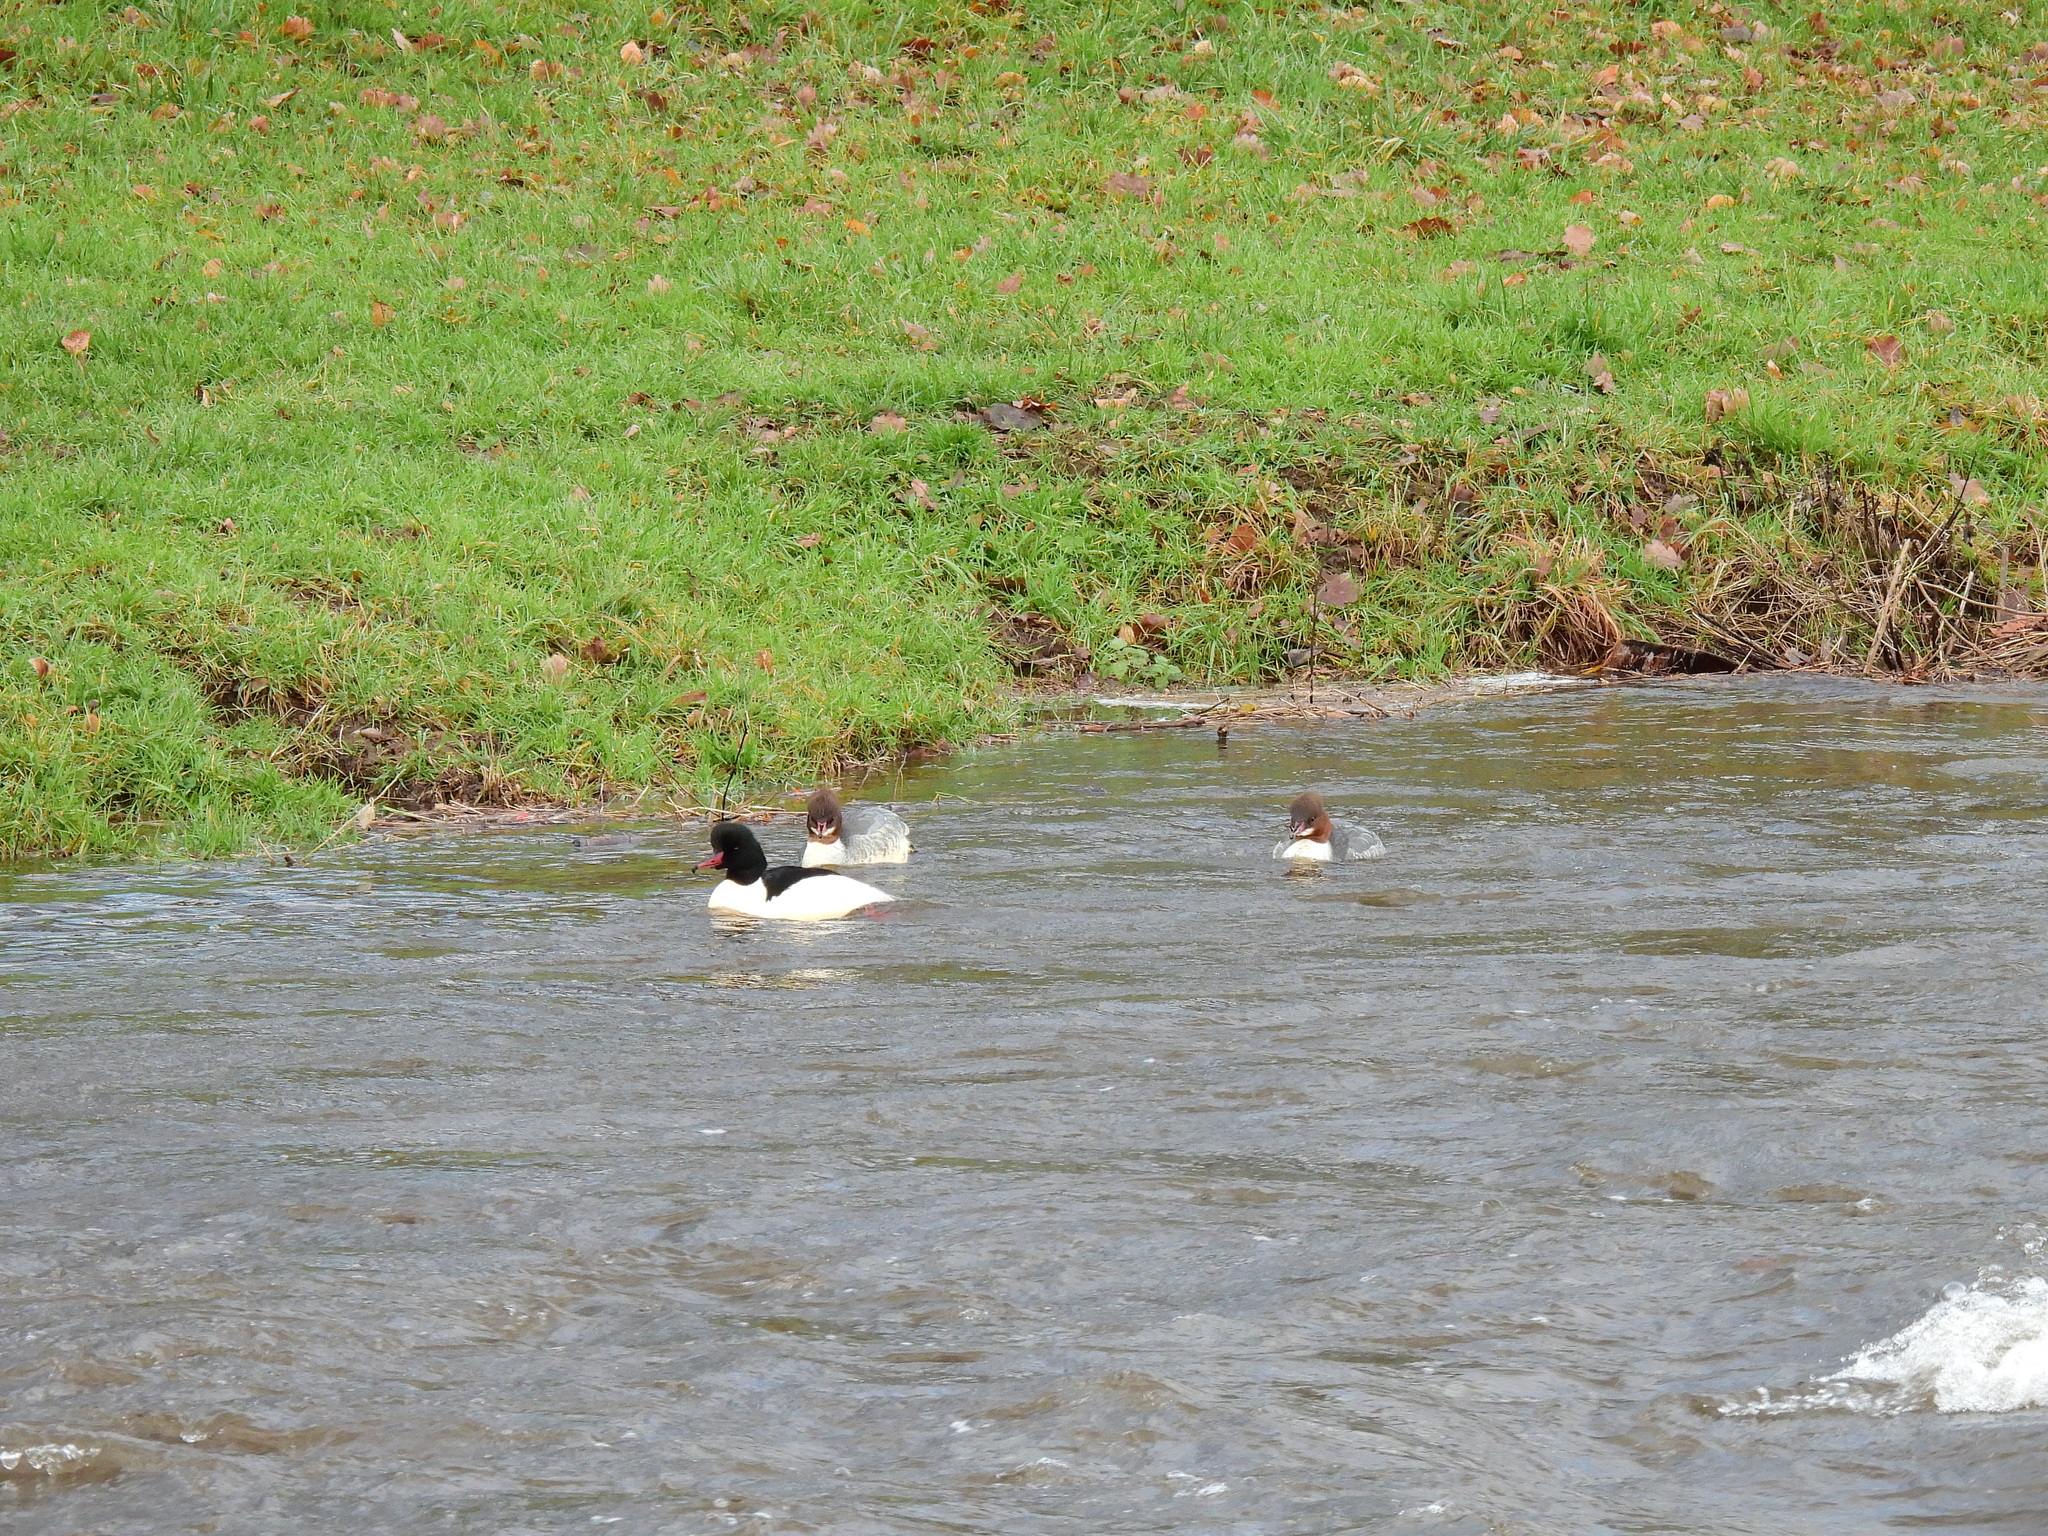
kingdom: Animalia
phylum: Chordata
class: Aves
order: Anseriformes
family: Anatidae
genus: Mergus
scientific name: Mergus merganser
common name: Common merganser
